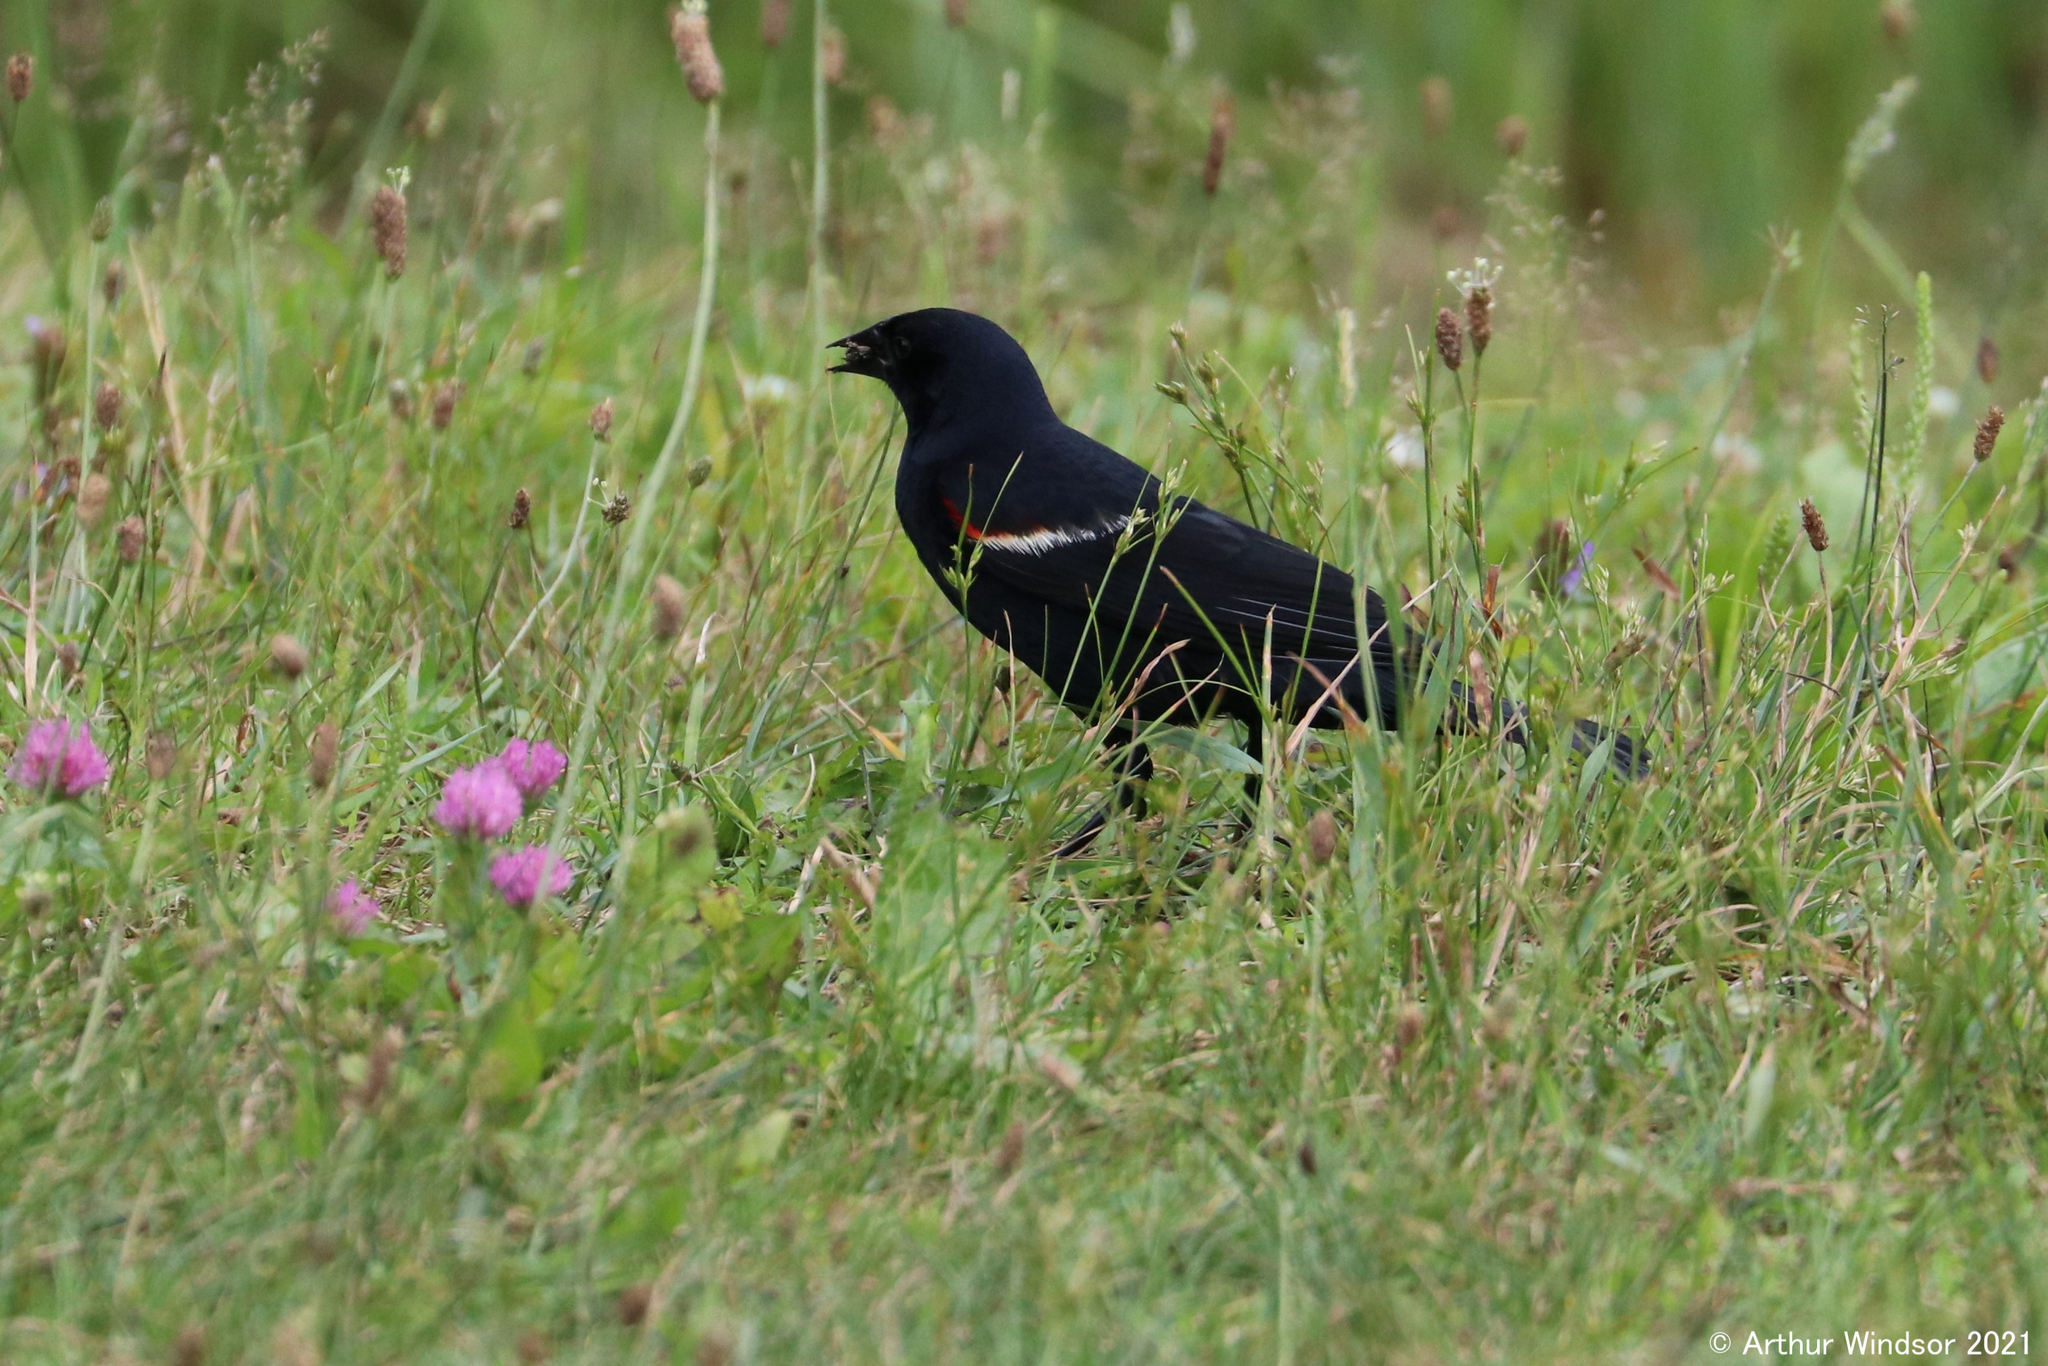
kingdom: Animalia
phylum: Chordata
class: Aves
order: Passeriformes
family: Icteridae
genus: Agelaius
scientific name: Agelaius phoeniceus
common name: Red-winged blackbird
